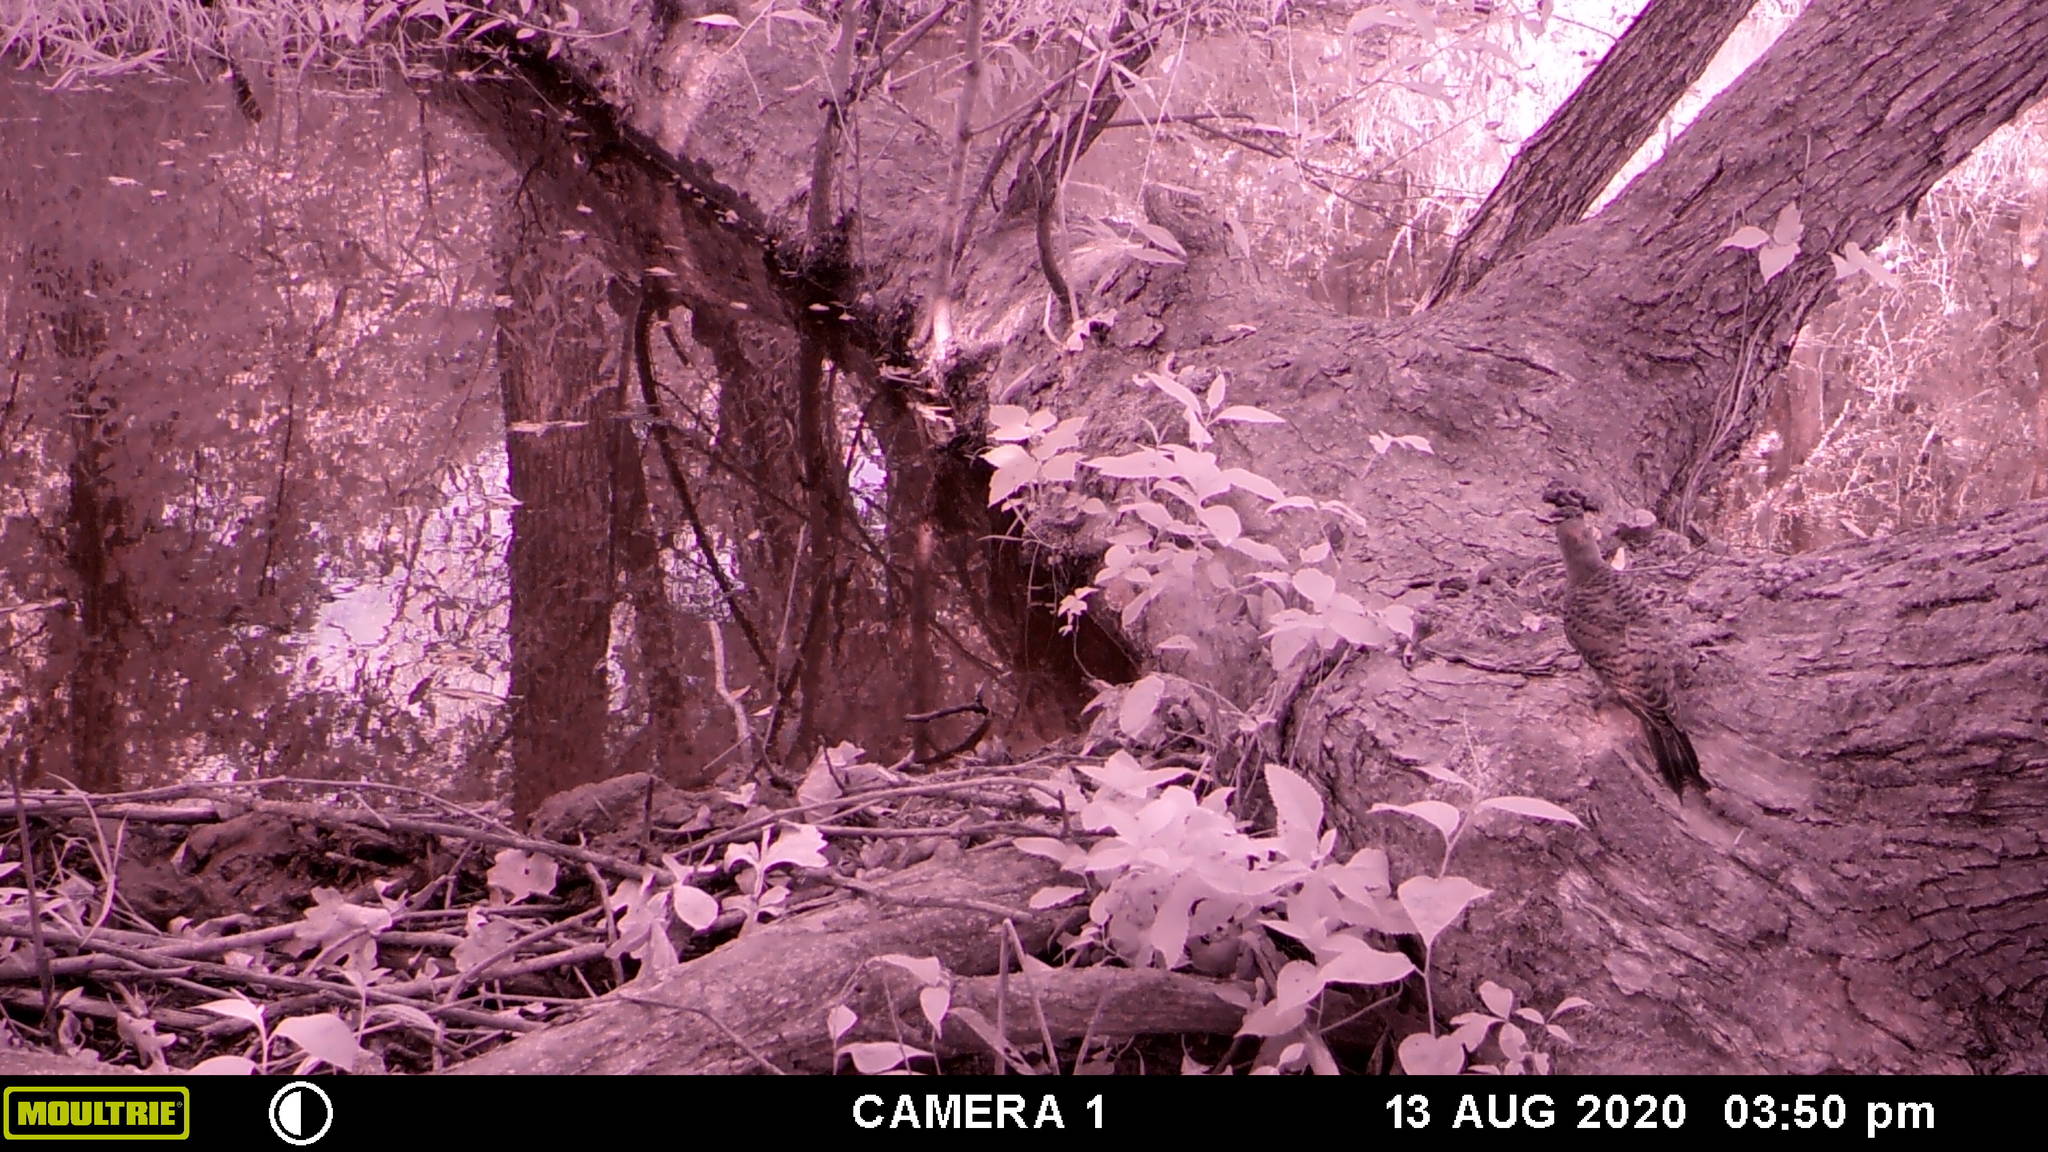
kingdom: Animalia
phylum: Chordata
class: Aves
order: Piciformes
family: Picidae
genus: Colaptes
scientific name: Colaptes auratus
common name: Northern flicker
